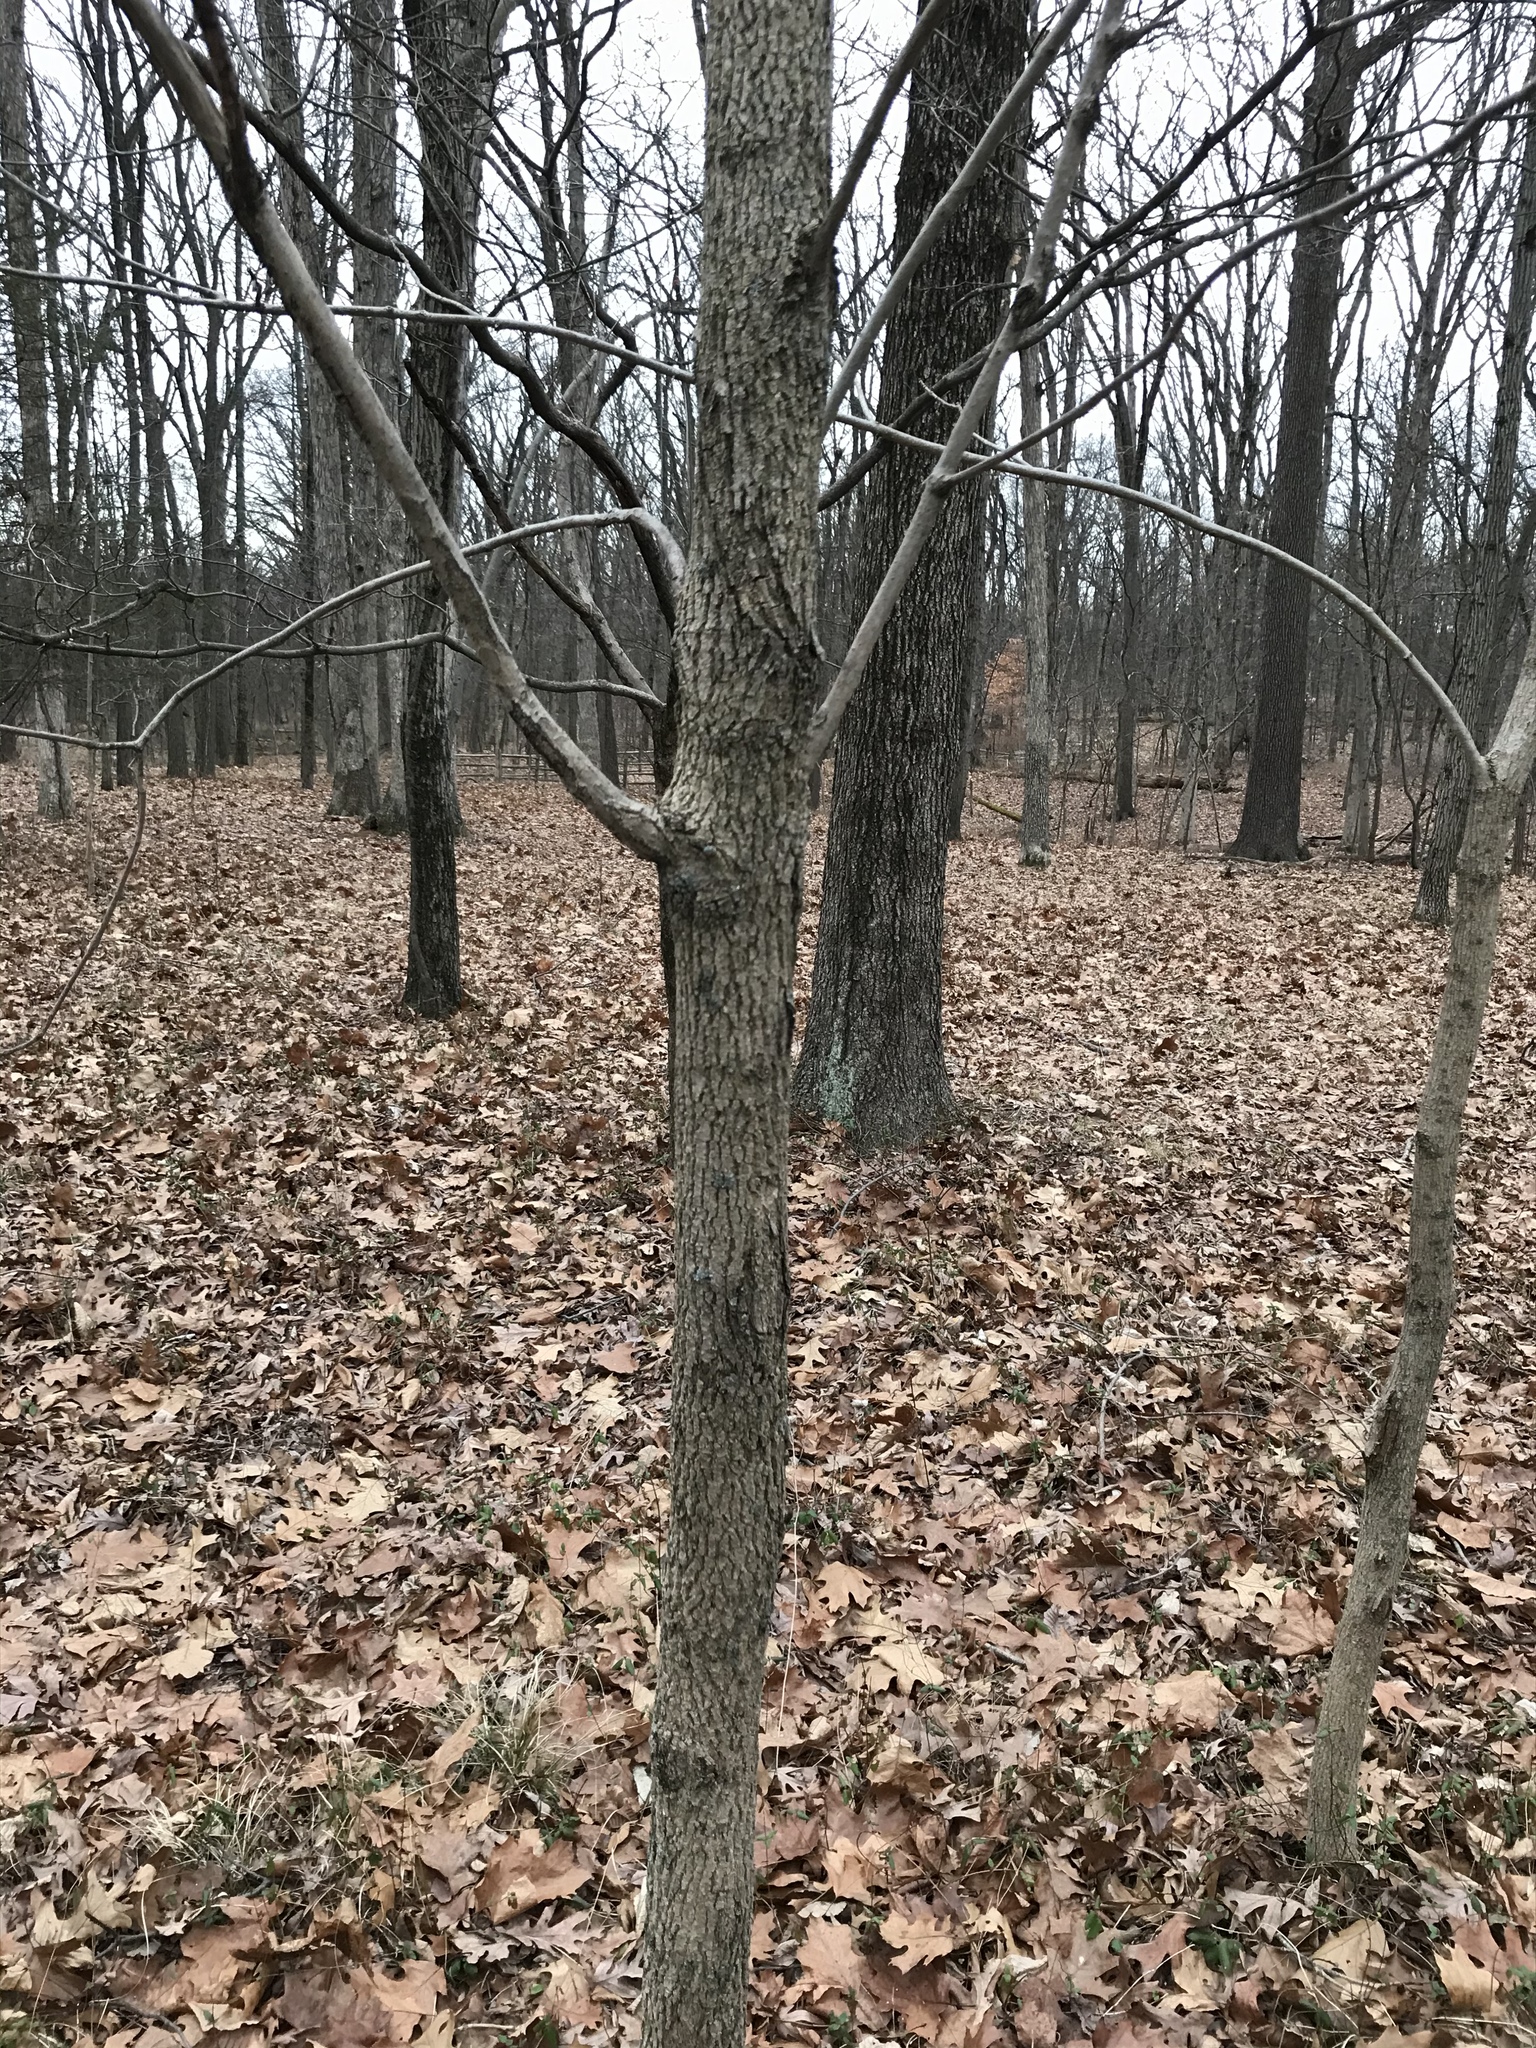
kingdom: Plantae
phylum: Tracheophyta
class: Magnoliopsida
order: Lamiales
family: Oleaceae
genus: Fraxinus
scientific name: Fraxinus americana
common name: White ash
